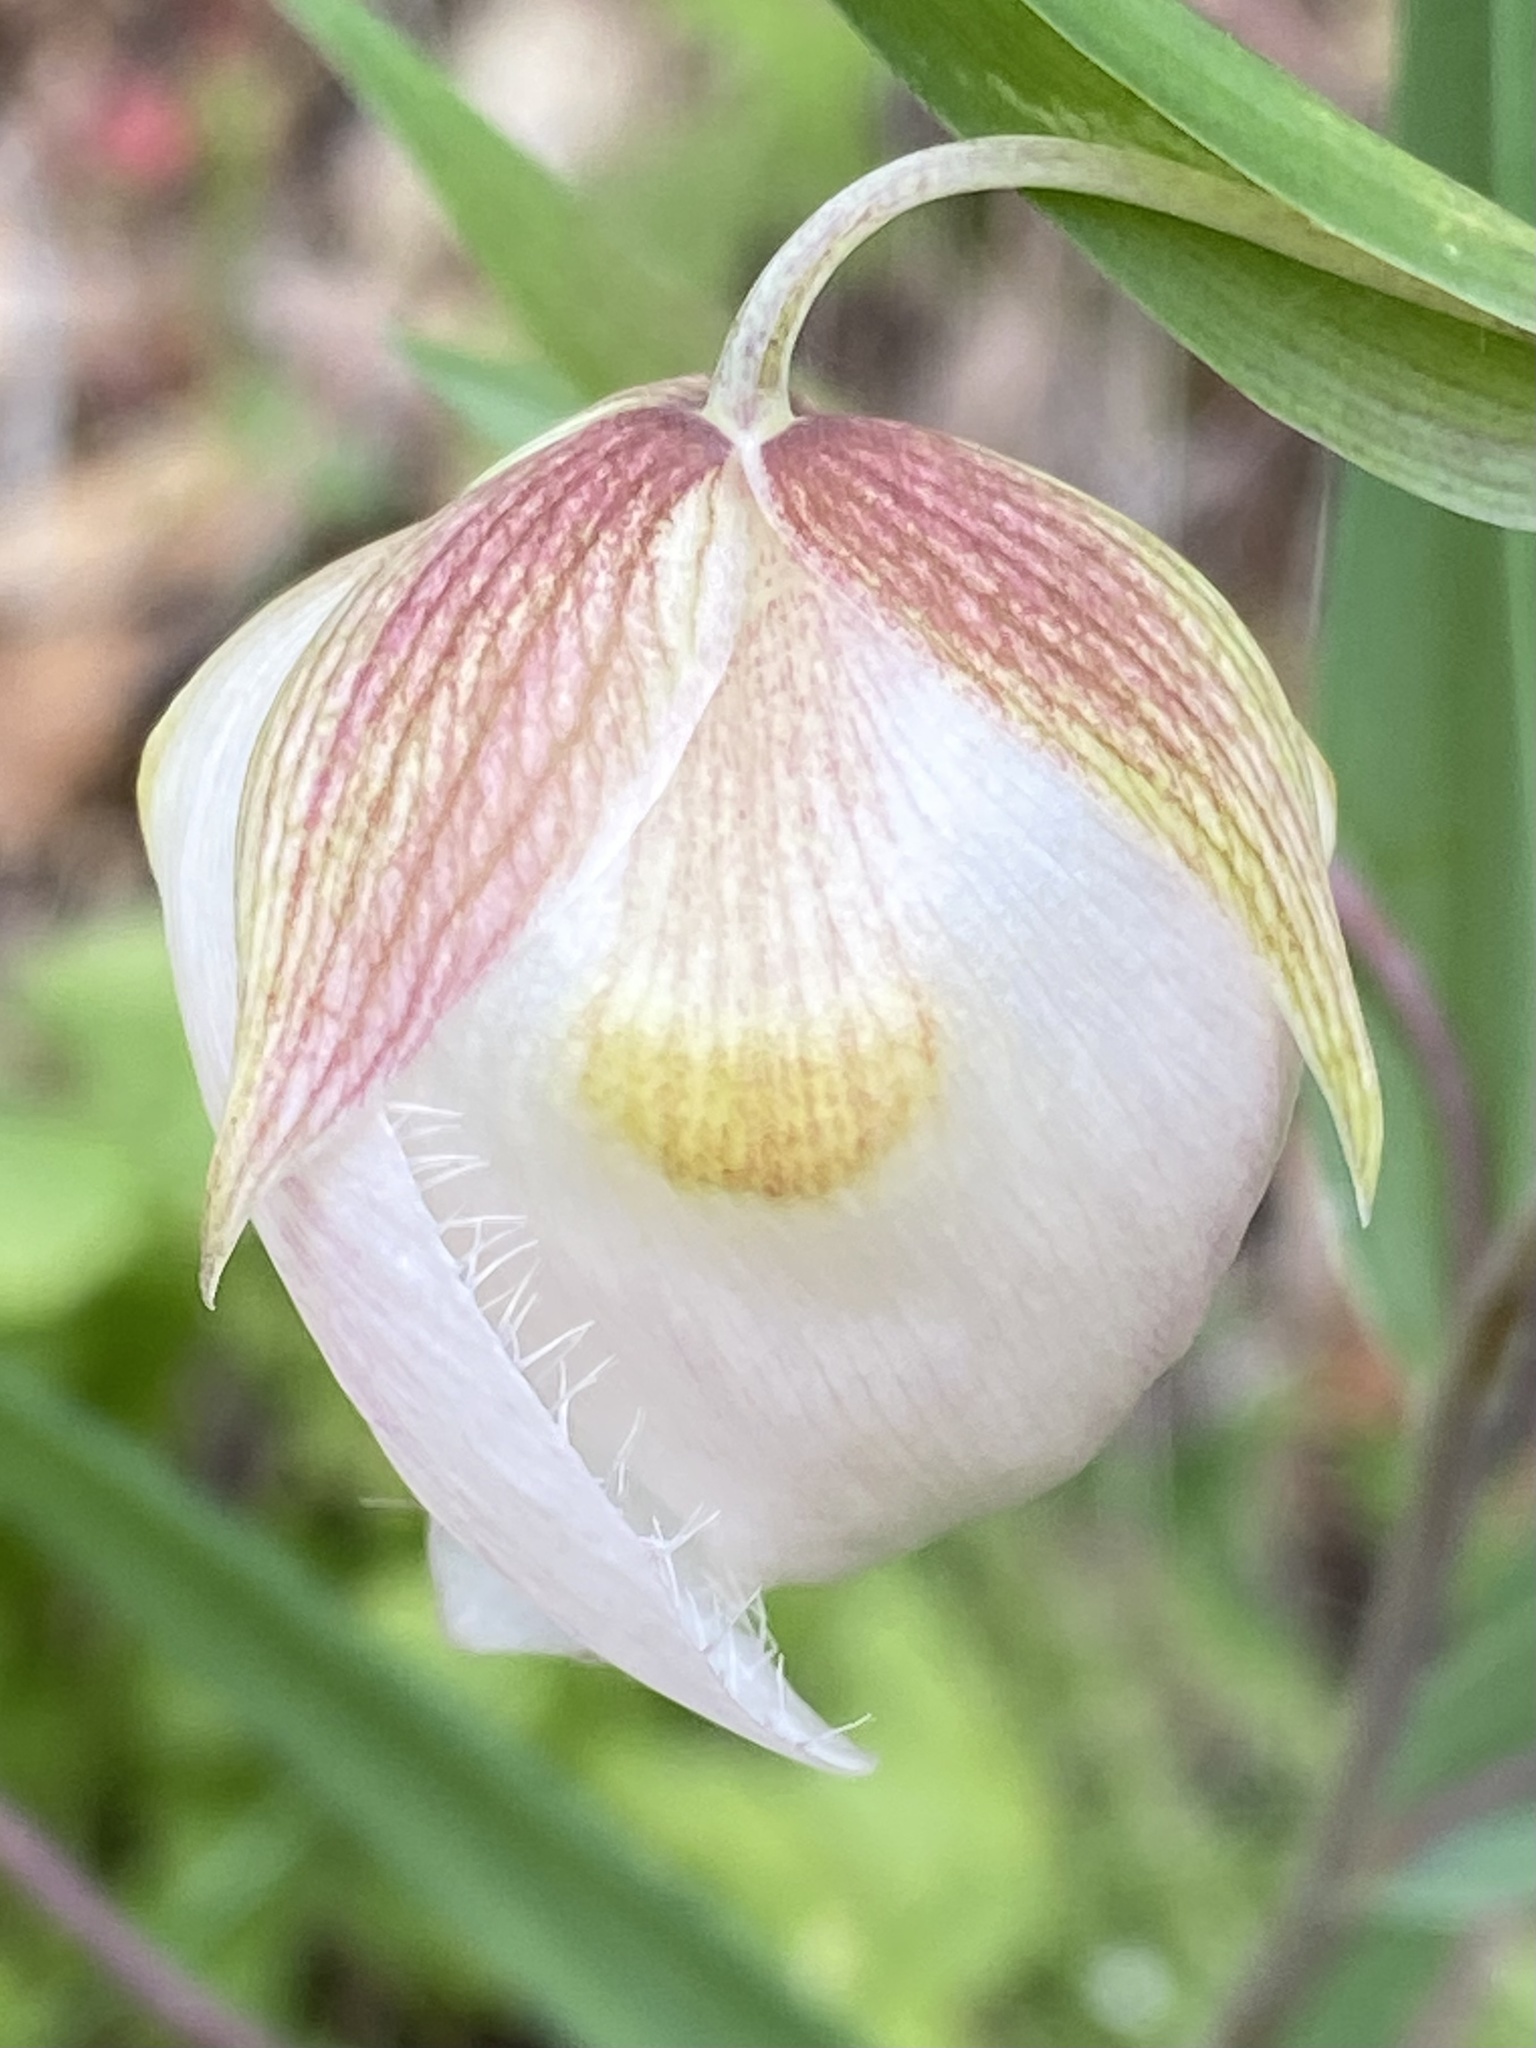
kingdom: Plantae
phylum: Tracheophyta
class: Liliopsida
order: Liliales
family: Liliaceae
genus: Calochortus
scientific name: Calochortus albus
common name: Fairy-lantern
